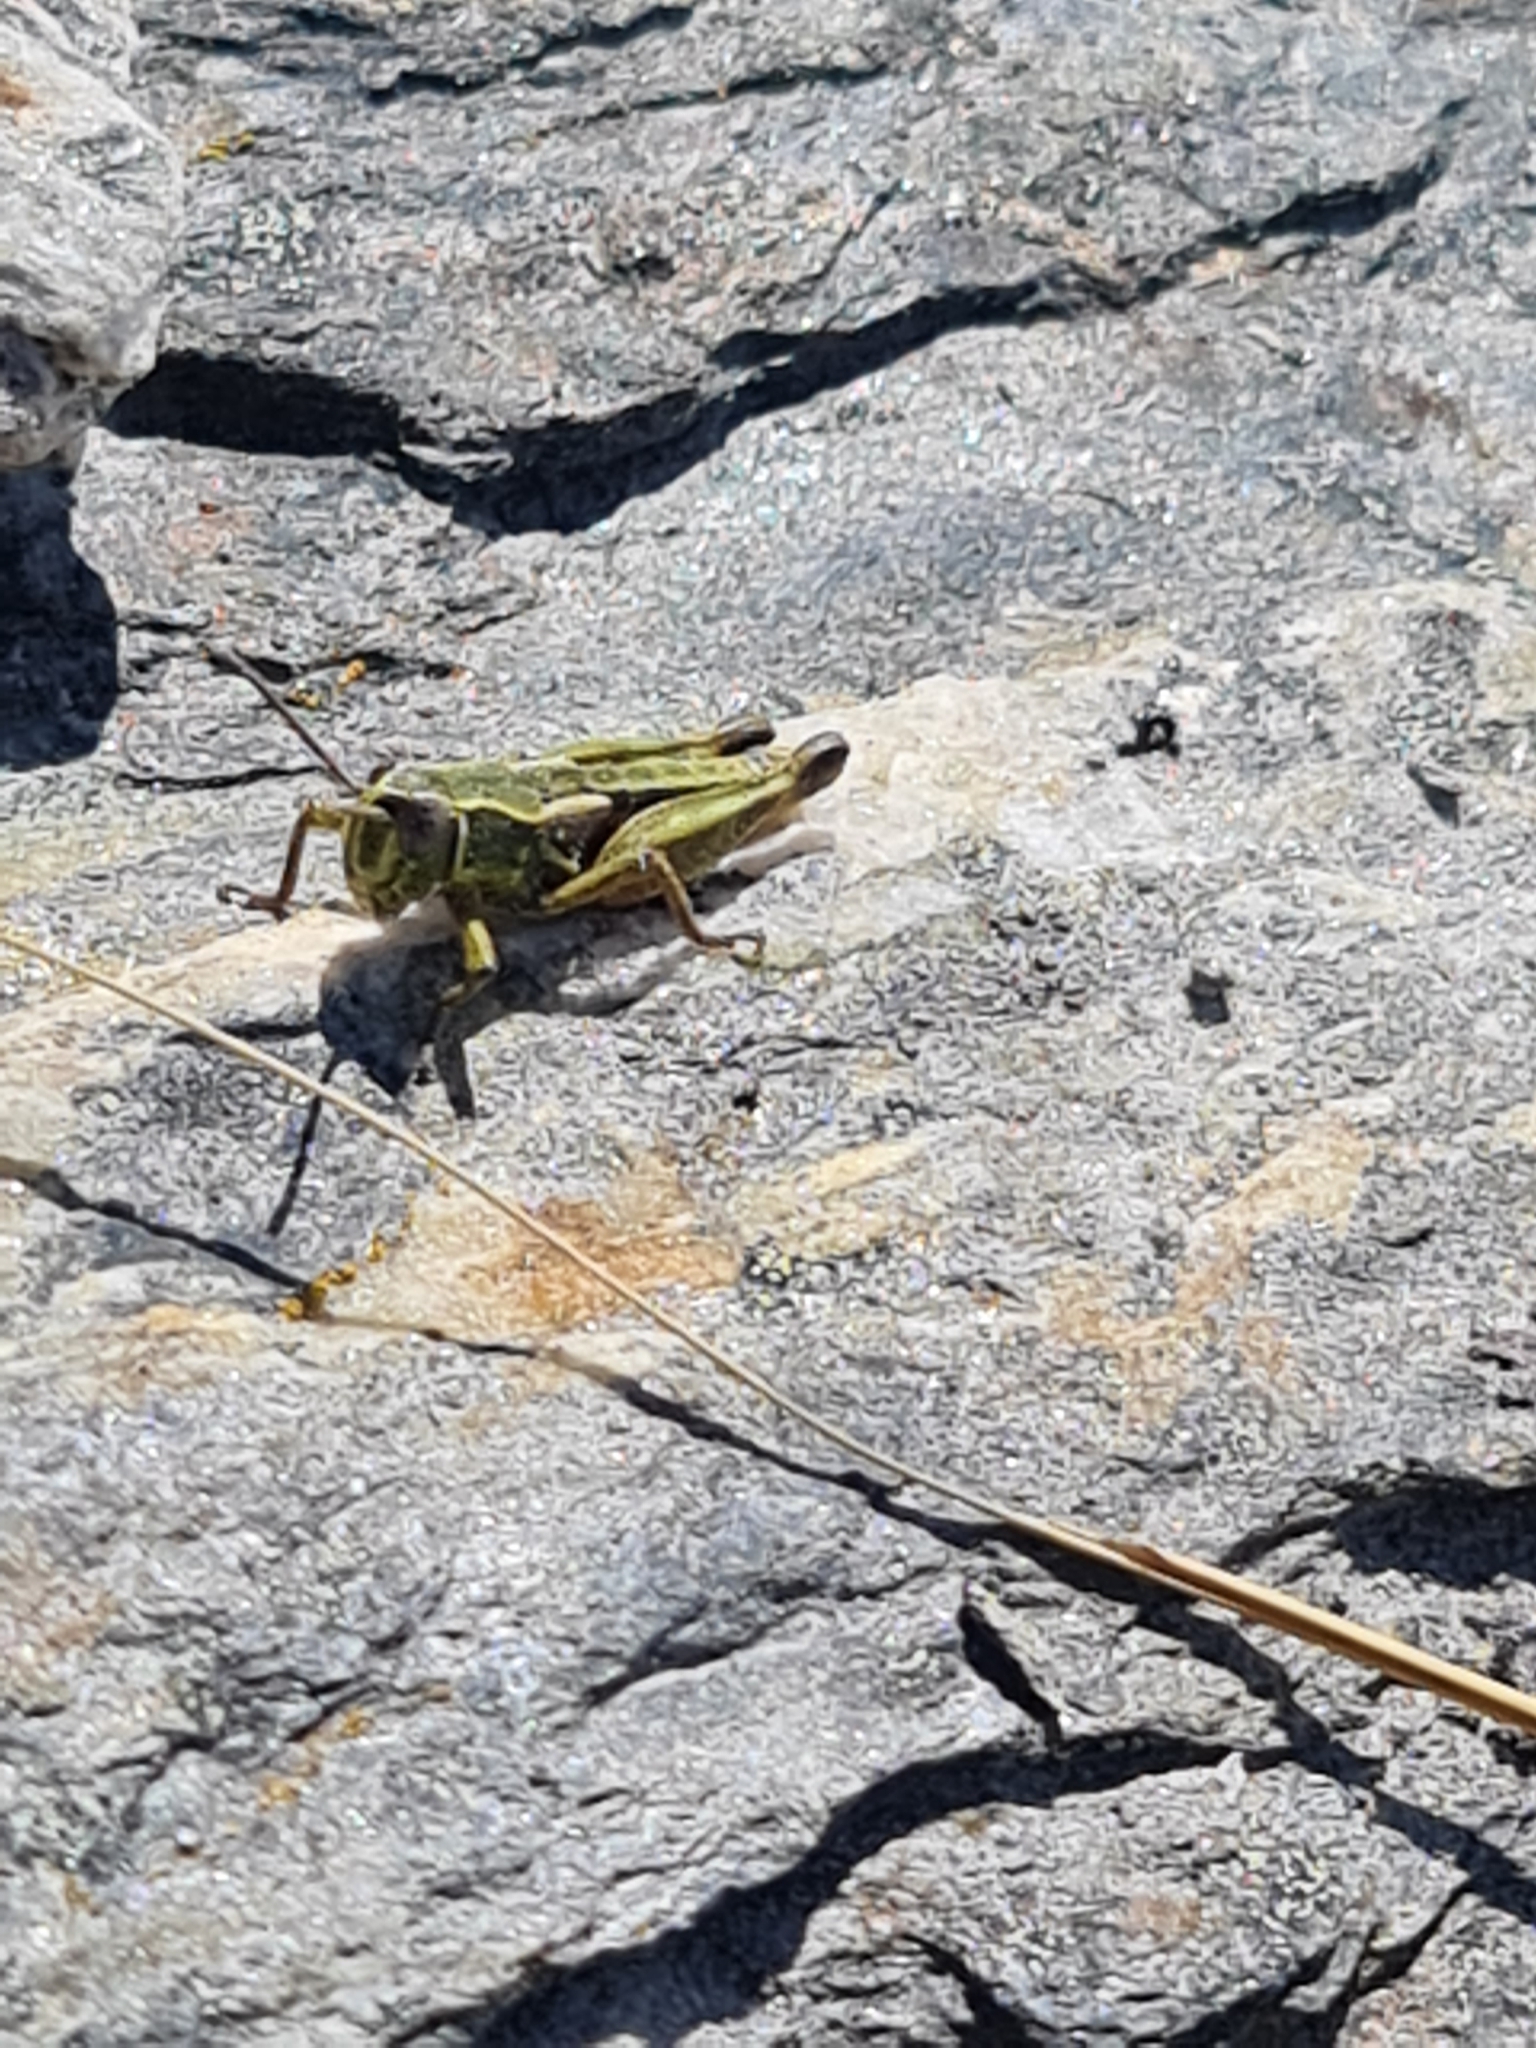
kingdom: Animalia
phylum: Arthropoda
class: Insecta
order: Orthoptera
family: Acrididae
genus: Sigaus
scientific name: Sigaus australis
